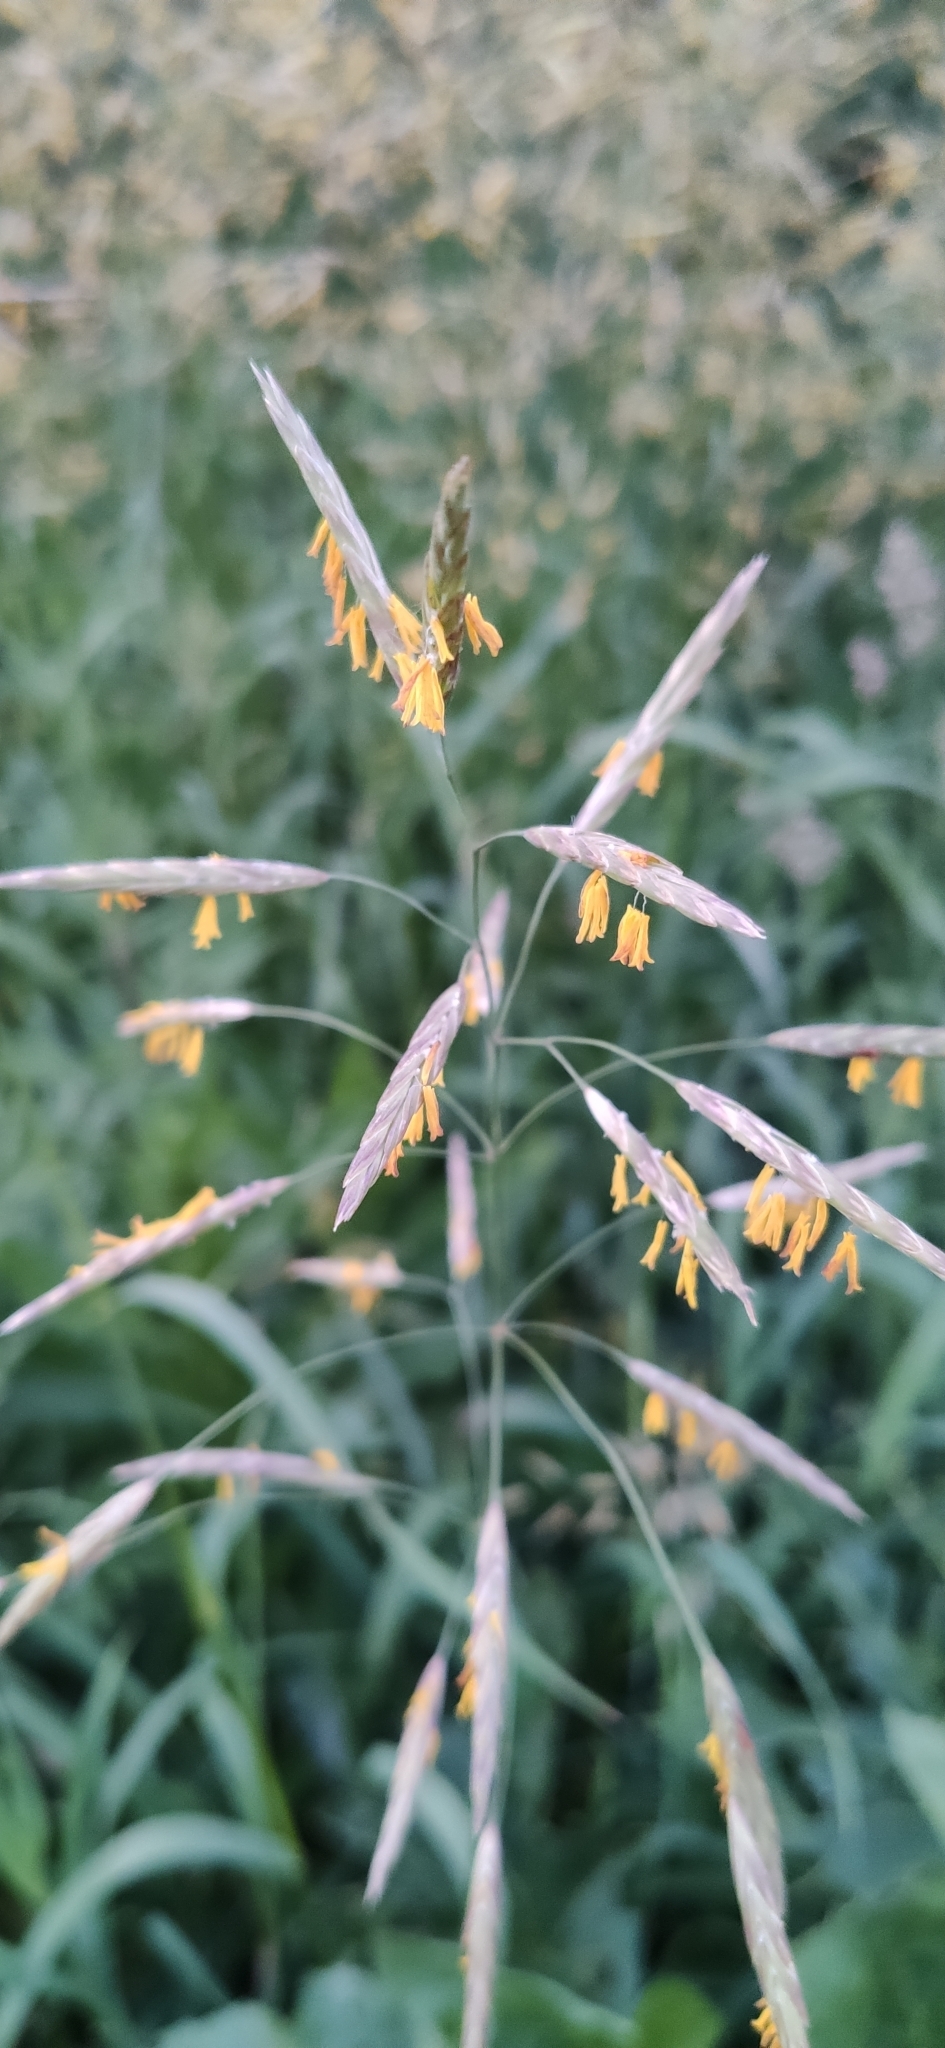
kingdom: Plantae
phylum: Tracheophyta
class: Liliopsida
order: Poales
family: Poaceae
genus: Bromus
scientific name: Bromus inermis
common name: Smooth brome
